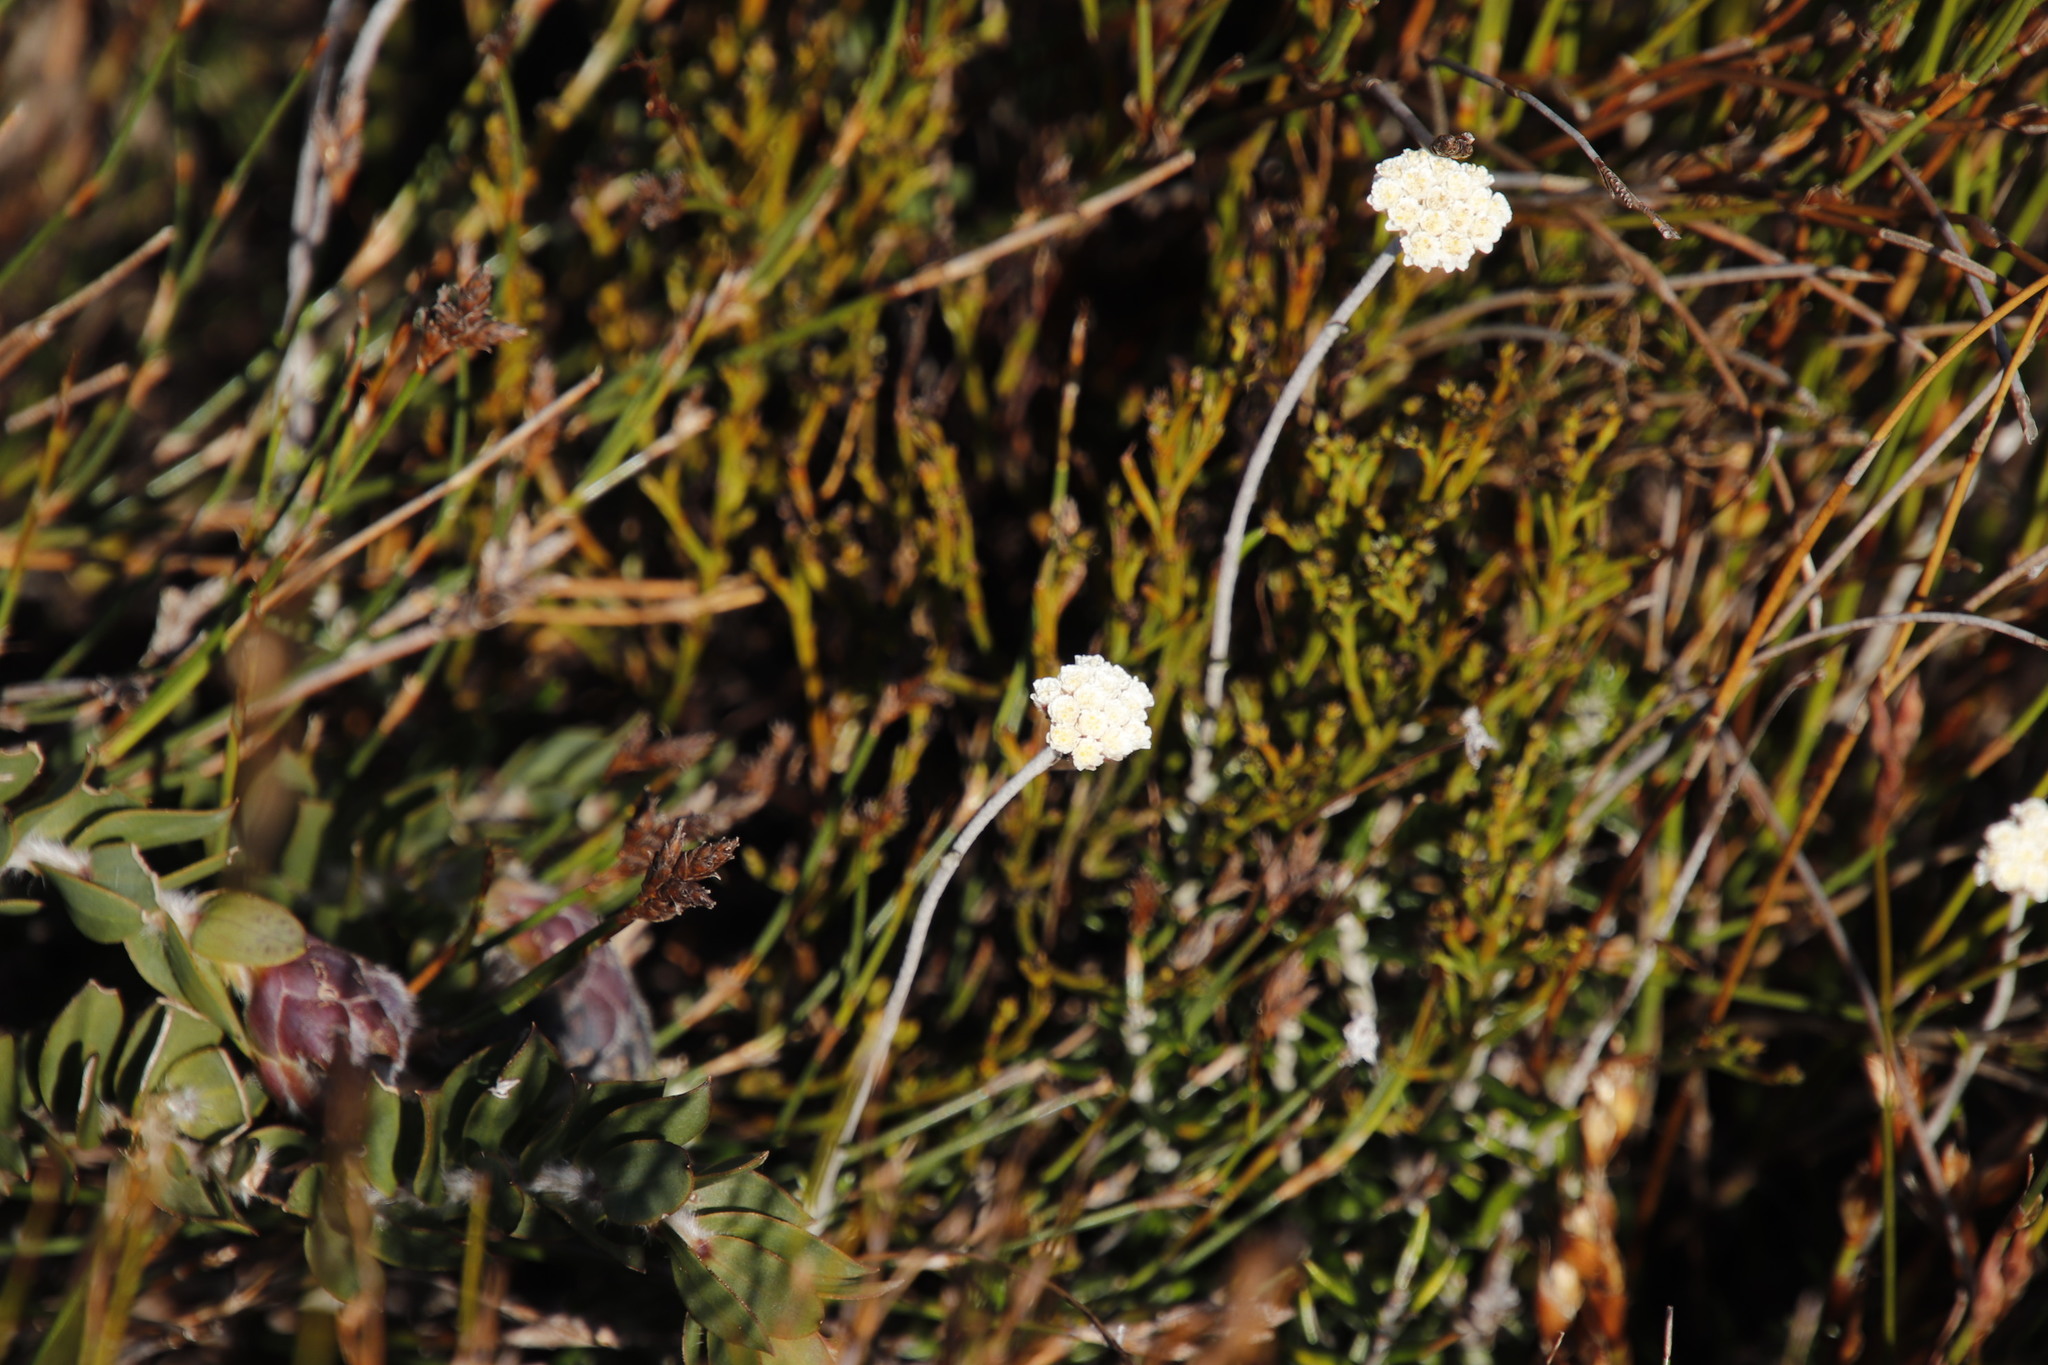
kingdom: Plantae
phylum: Tracheophyta
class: Magnoliopsida
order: Asterales
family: Asteraceae
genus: Anaxeton
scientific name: Anaxeton laeve
